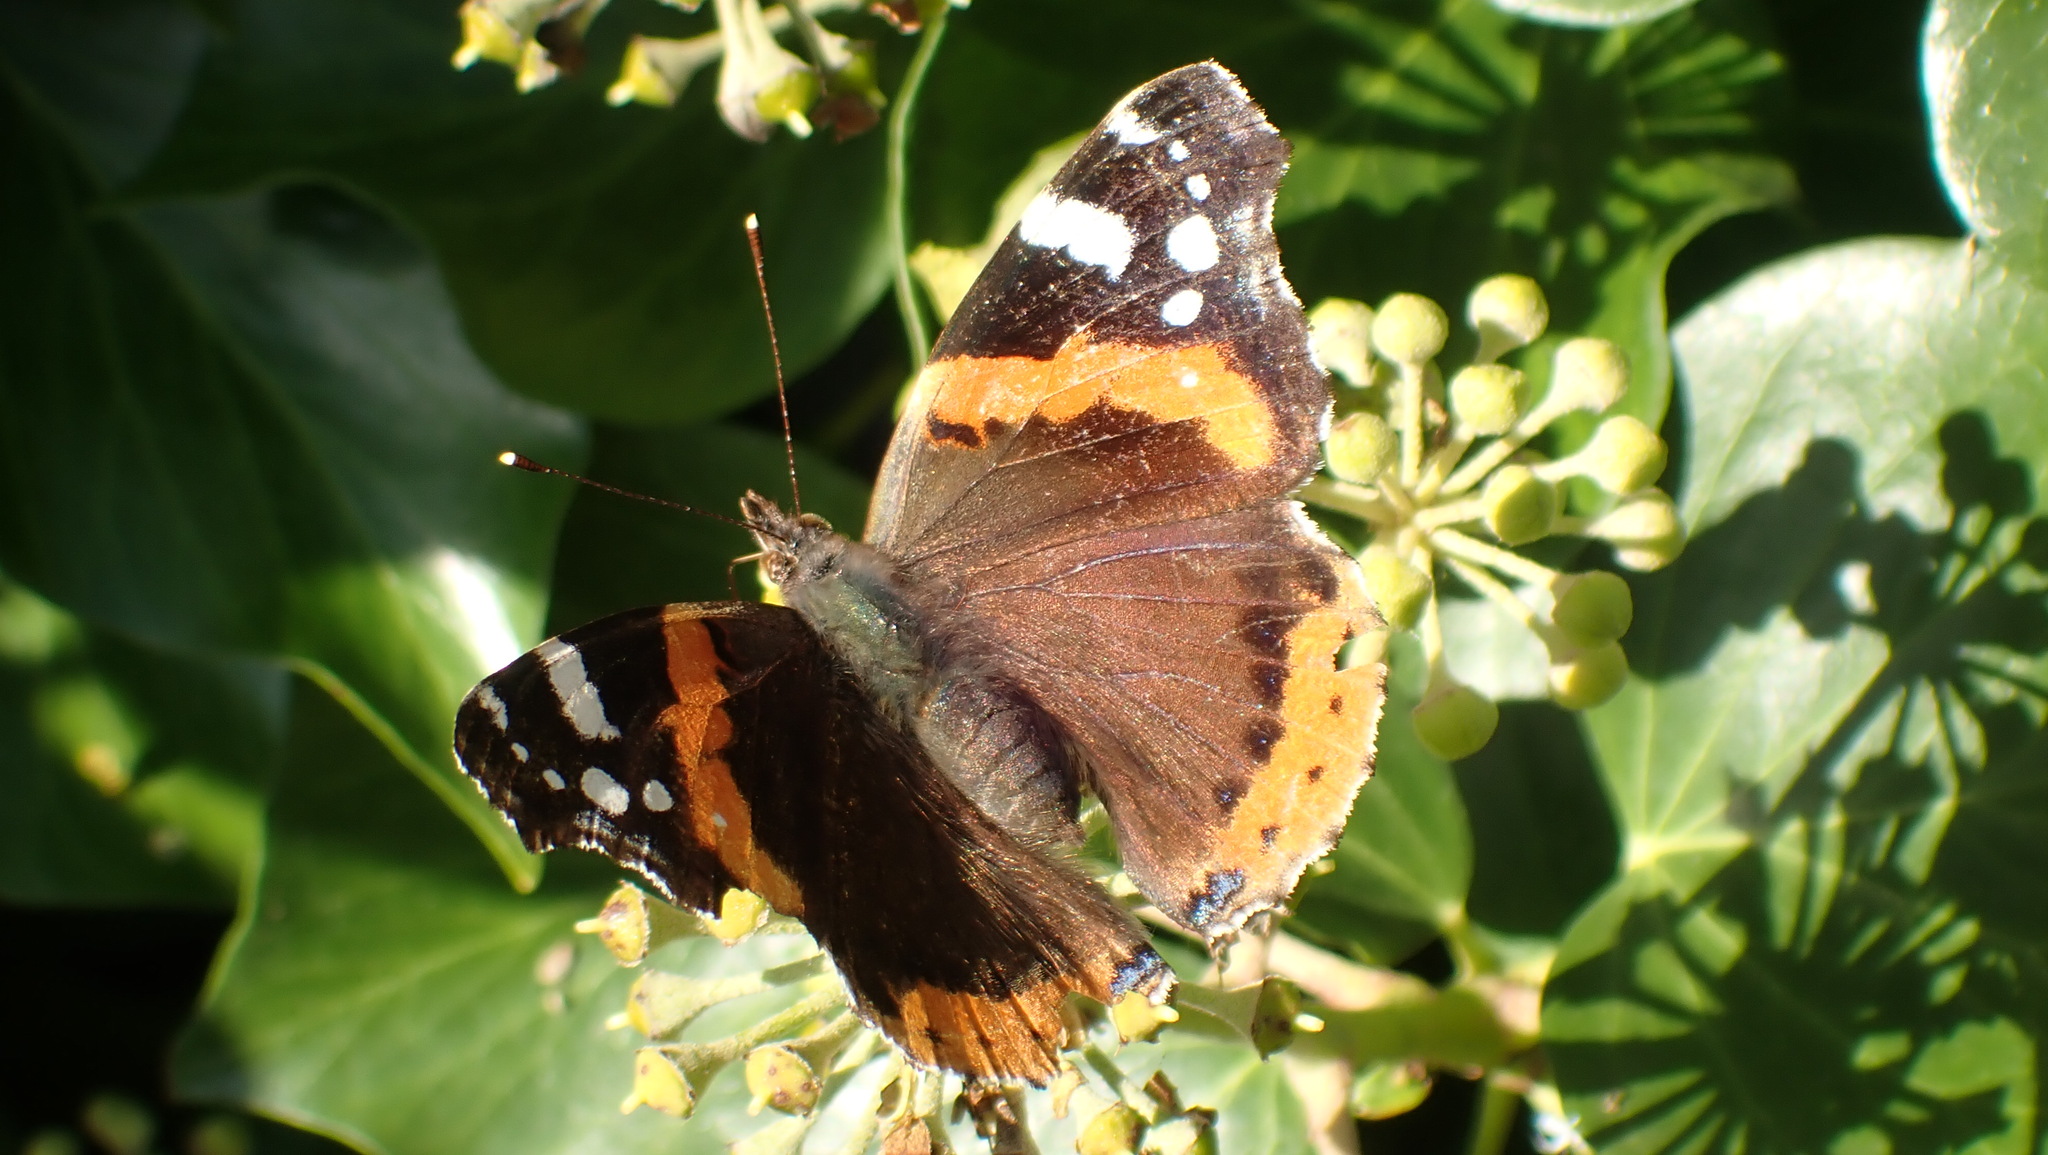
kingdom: Animalia
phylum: Arthropoda
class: Insecta
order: Lepidoptera
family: Nymphalidae
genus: Vanessa
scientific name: Vanessa atalanta
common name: Red admiral
